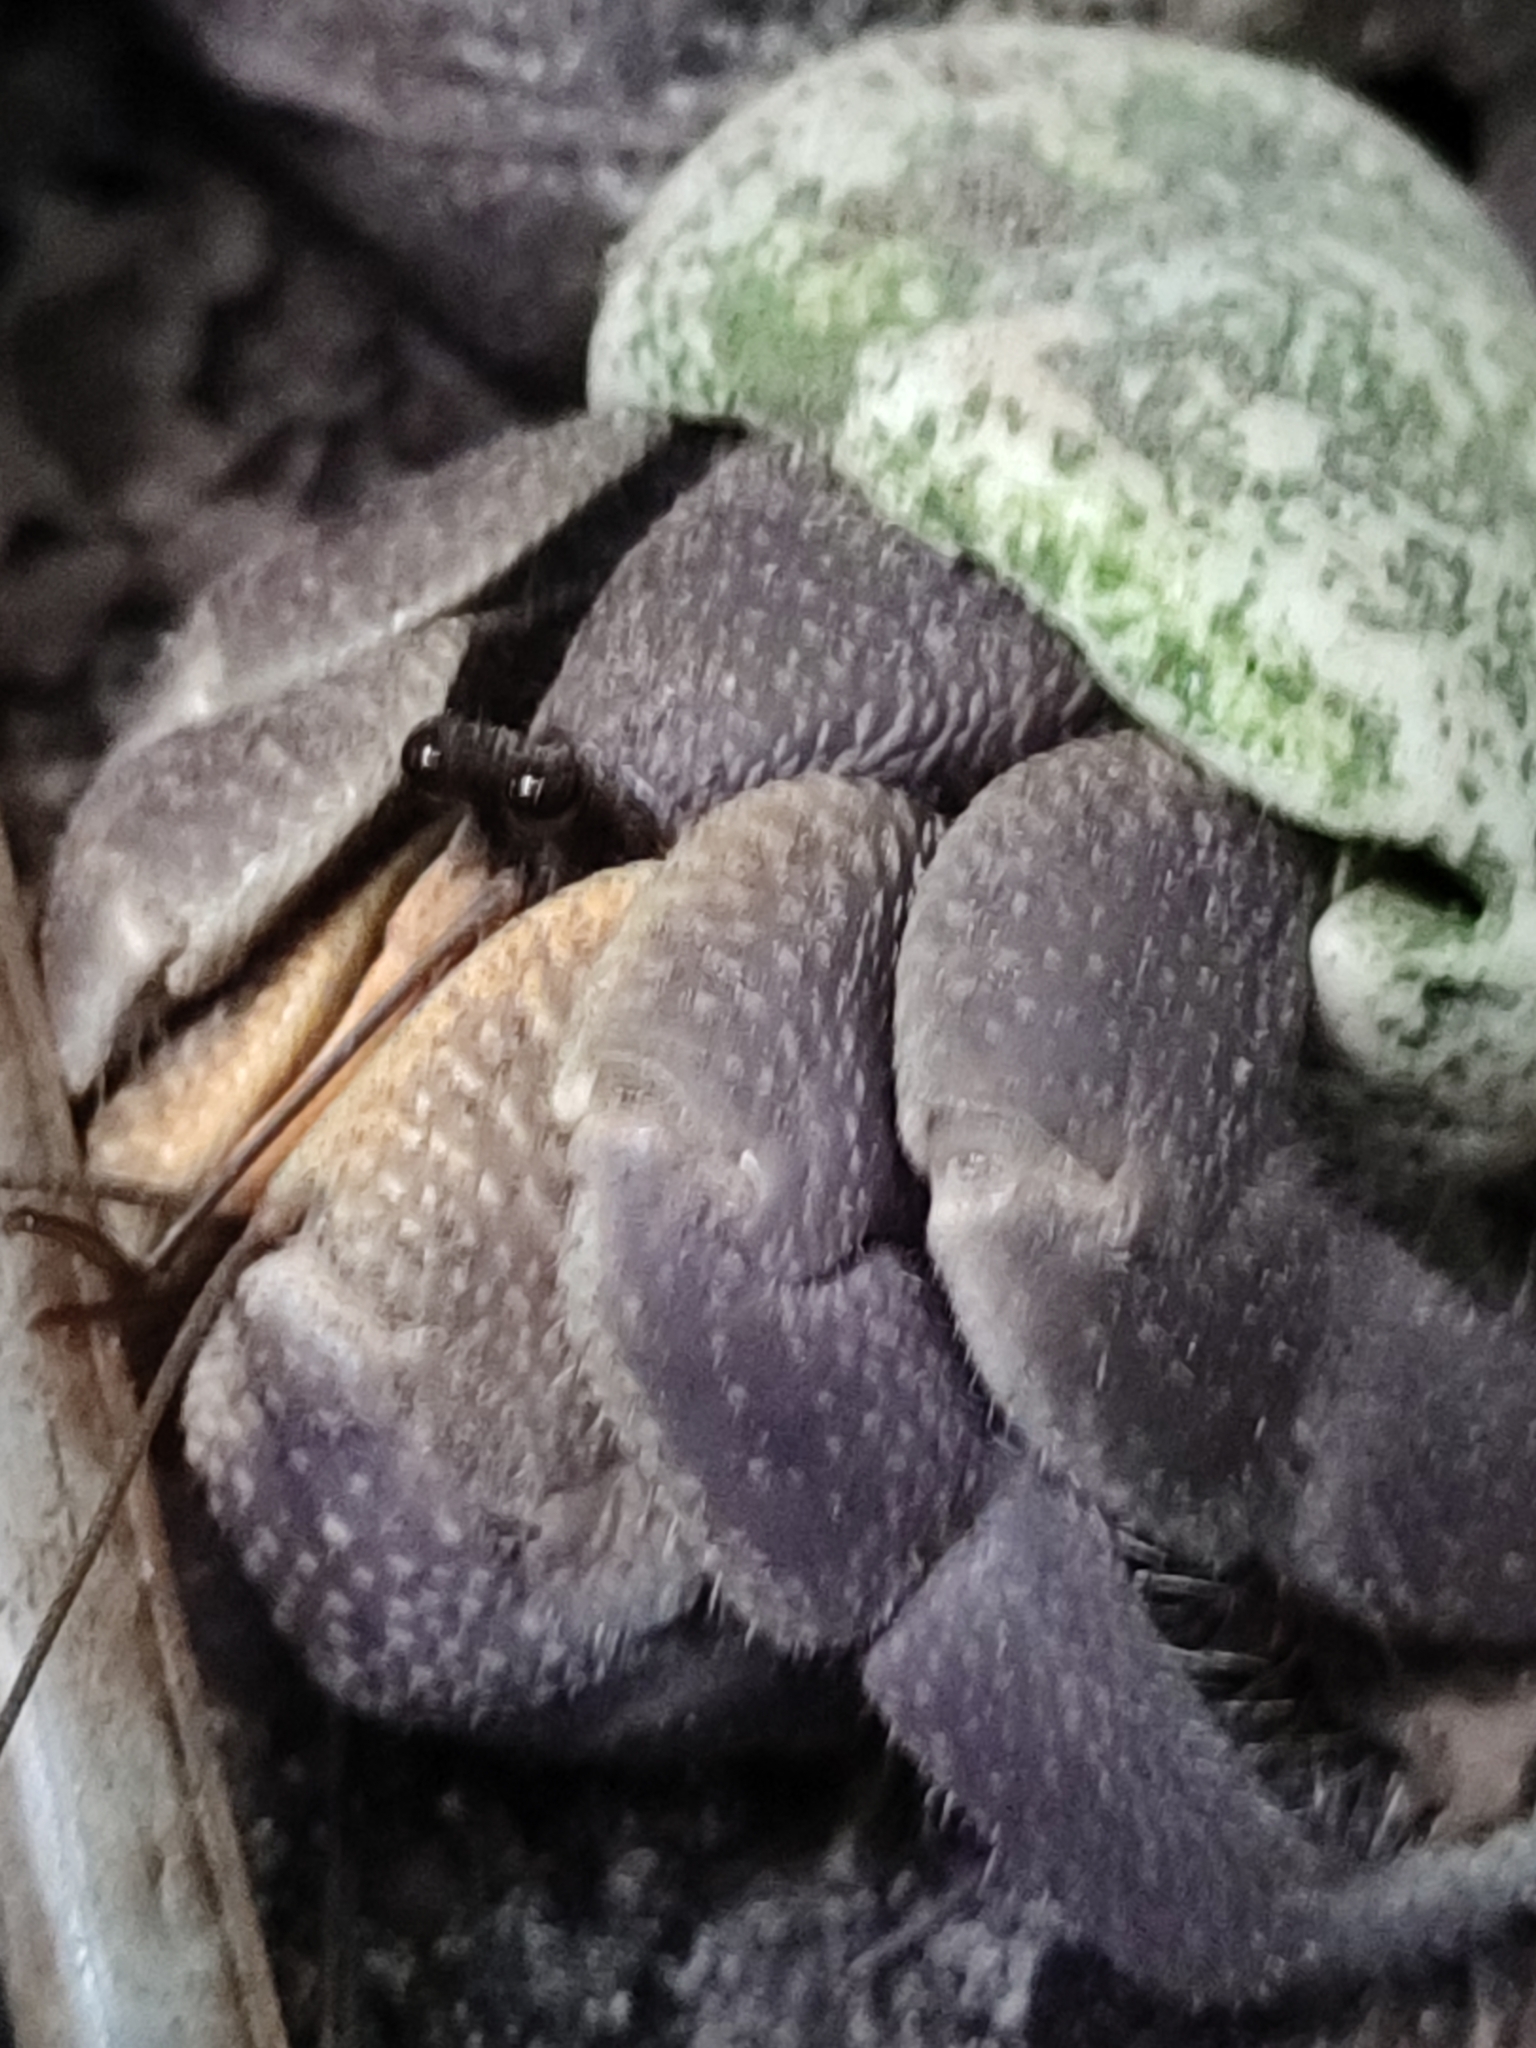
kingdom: Animalia
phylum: Arthropoda
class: Malacostraca
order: Decapoda
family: Coenobitidae
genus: Coenobita
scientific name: Coenobita brevimanus
